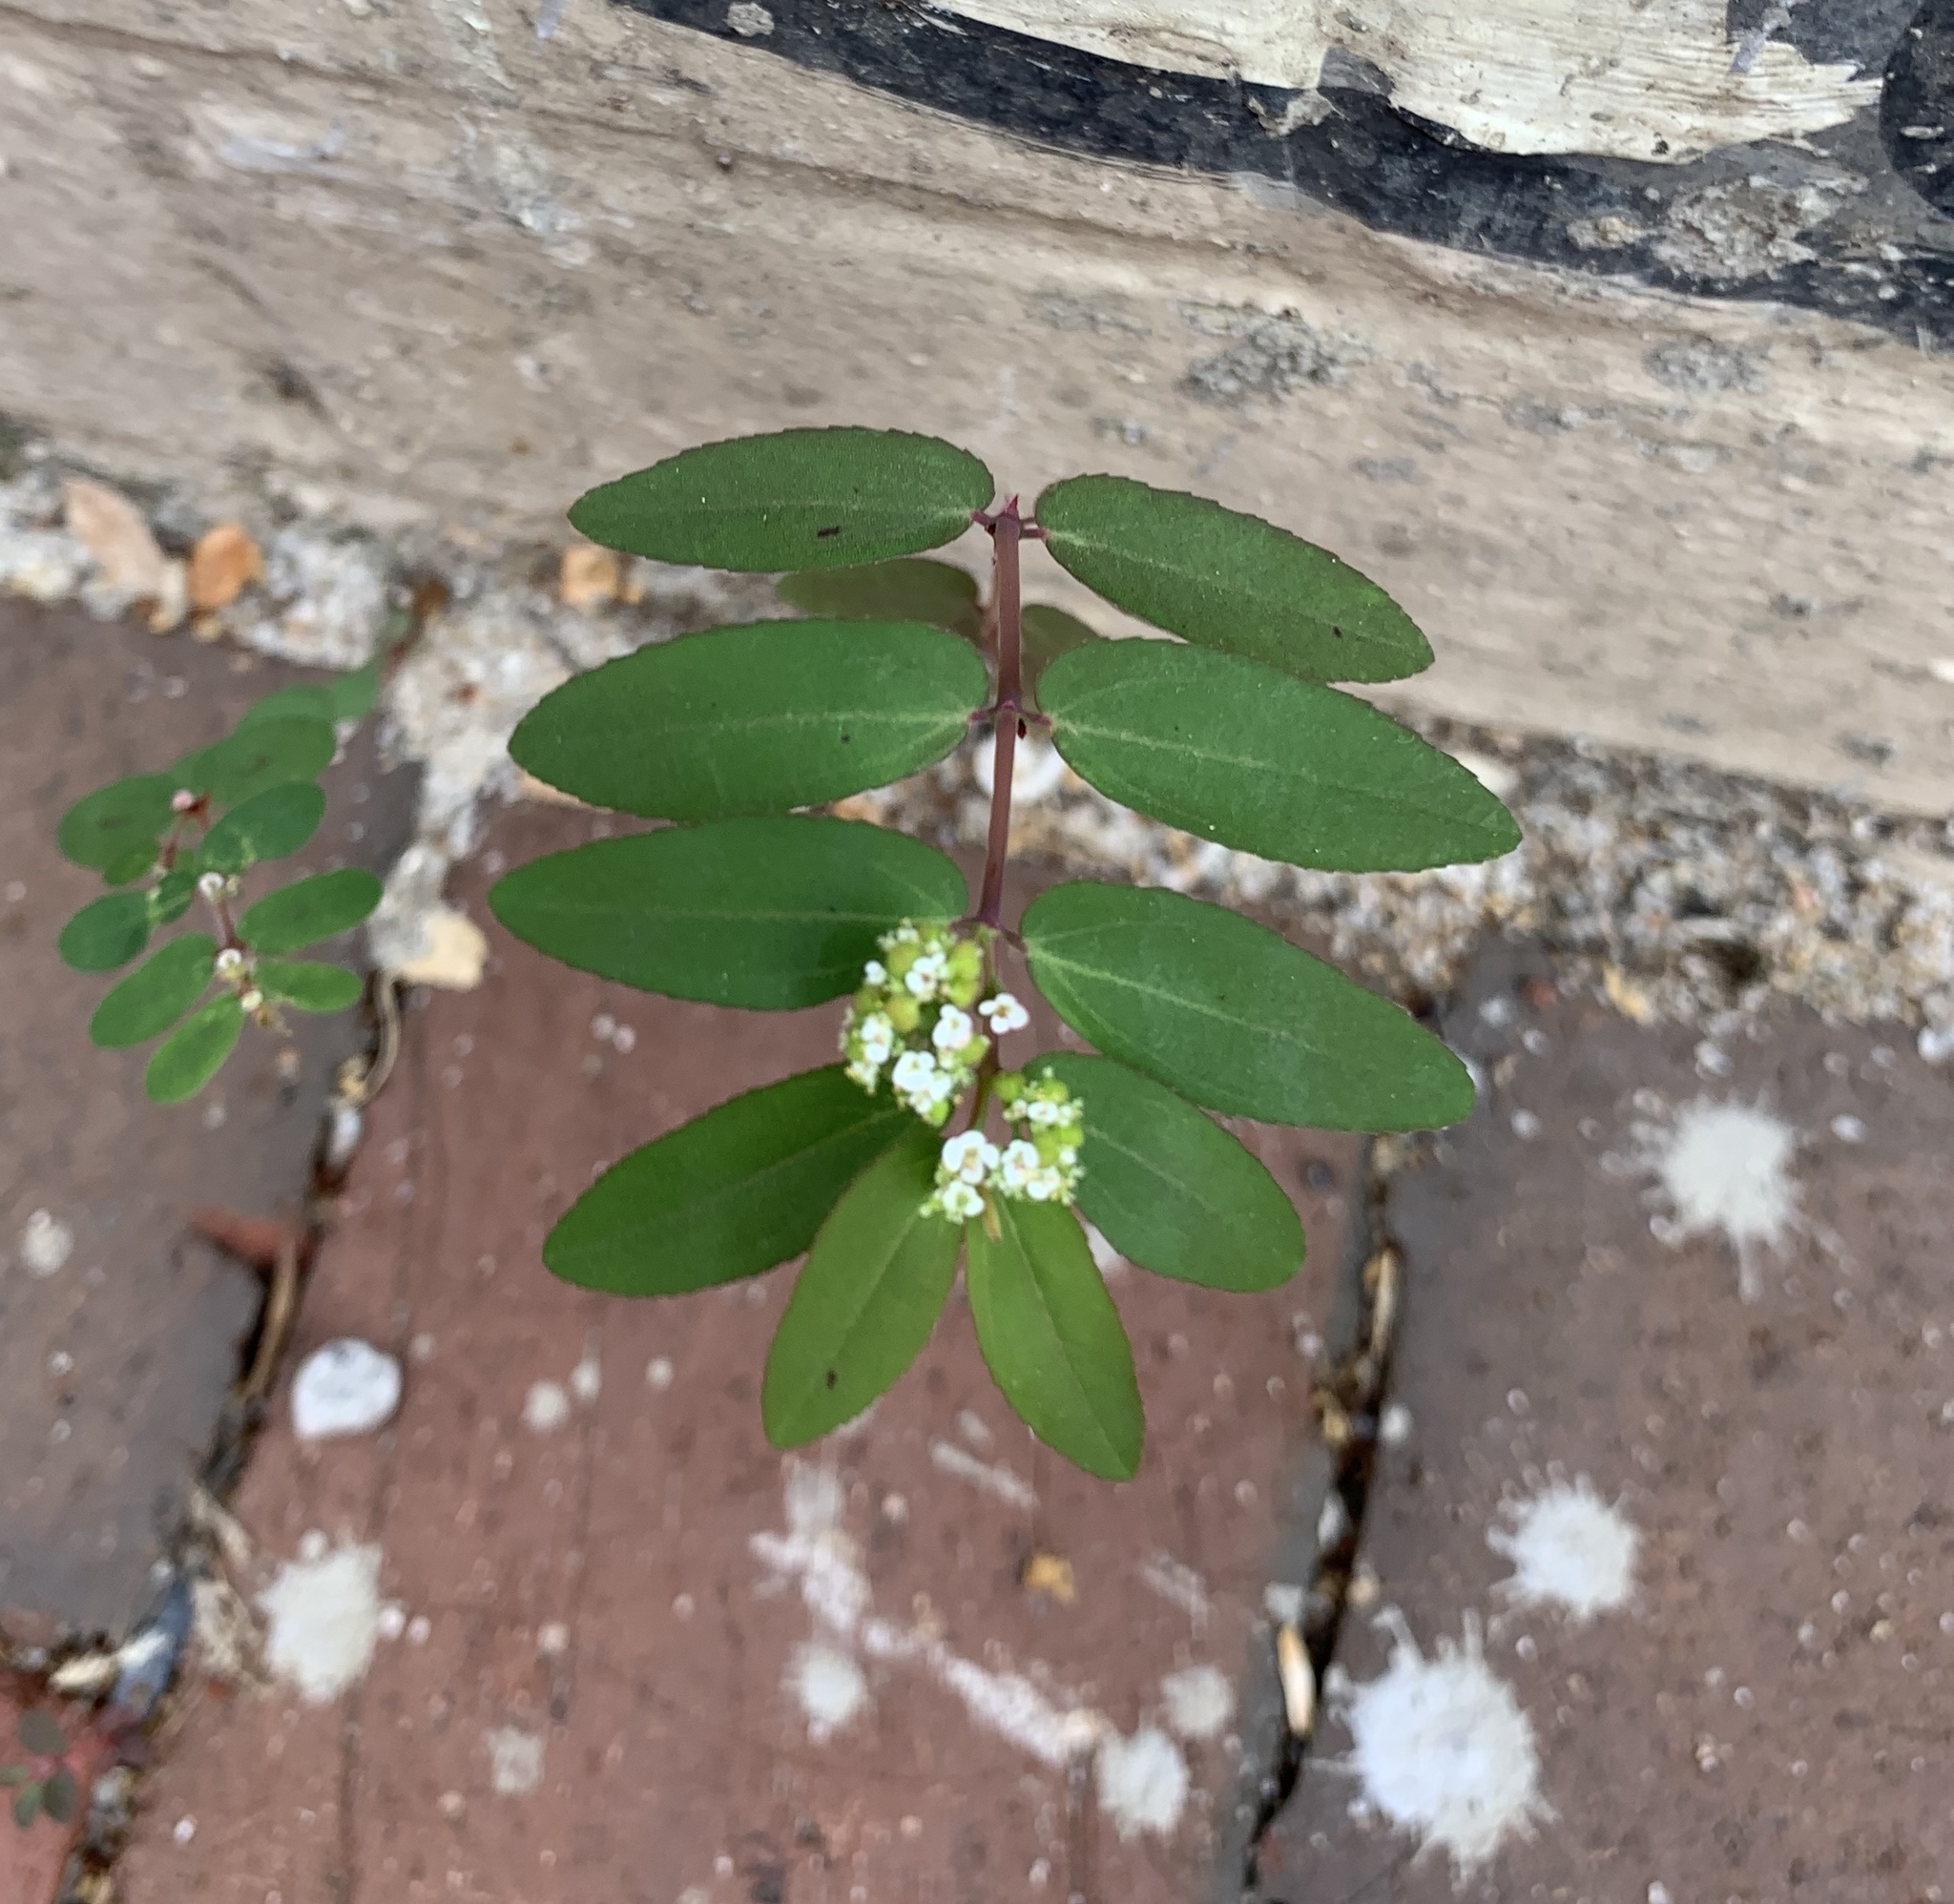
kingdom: Plantae
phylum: Tracheophyta
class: Magnoliopsida
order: Malpighiales
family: Euphorbiaceae
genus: Euphorbia
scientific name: Euphorbia hypericifolia
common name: Graceful sandmat
